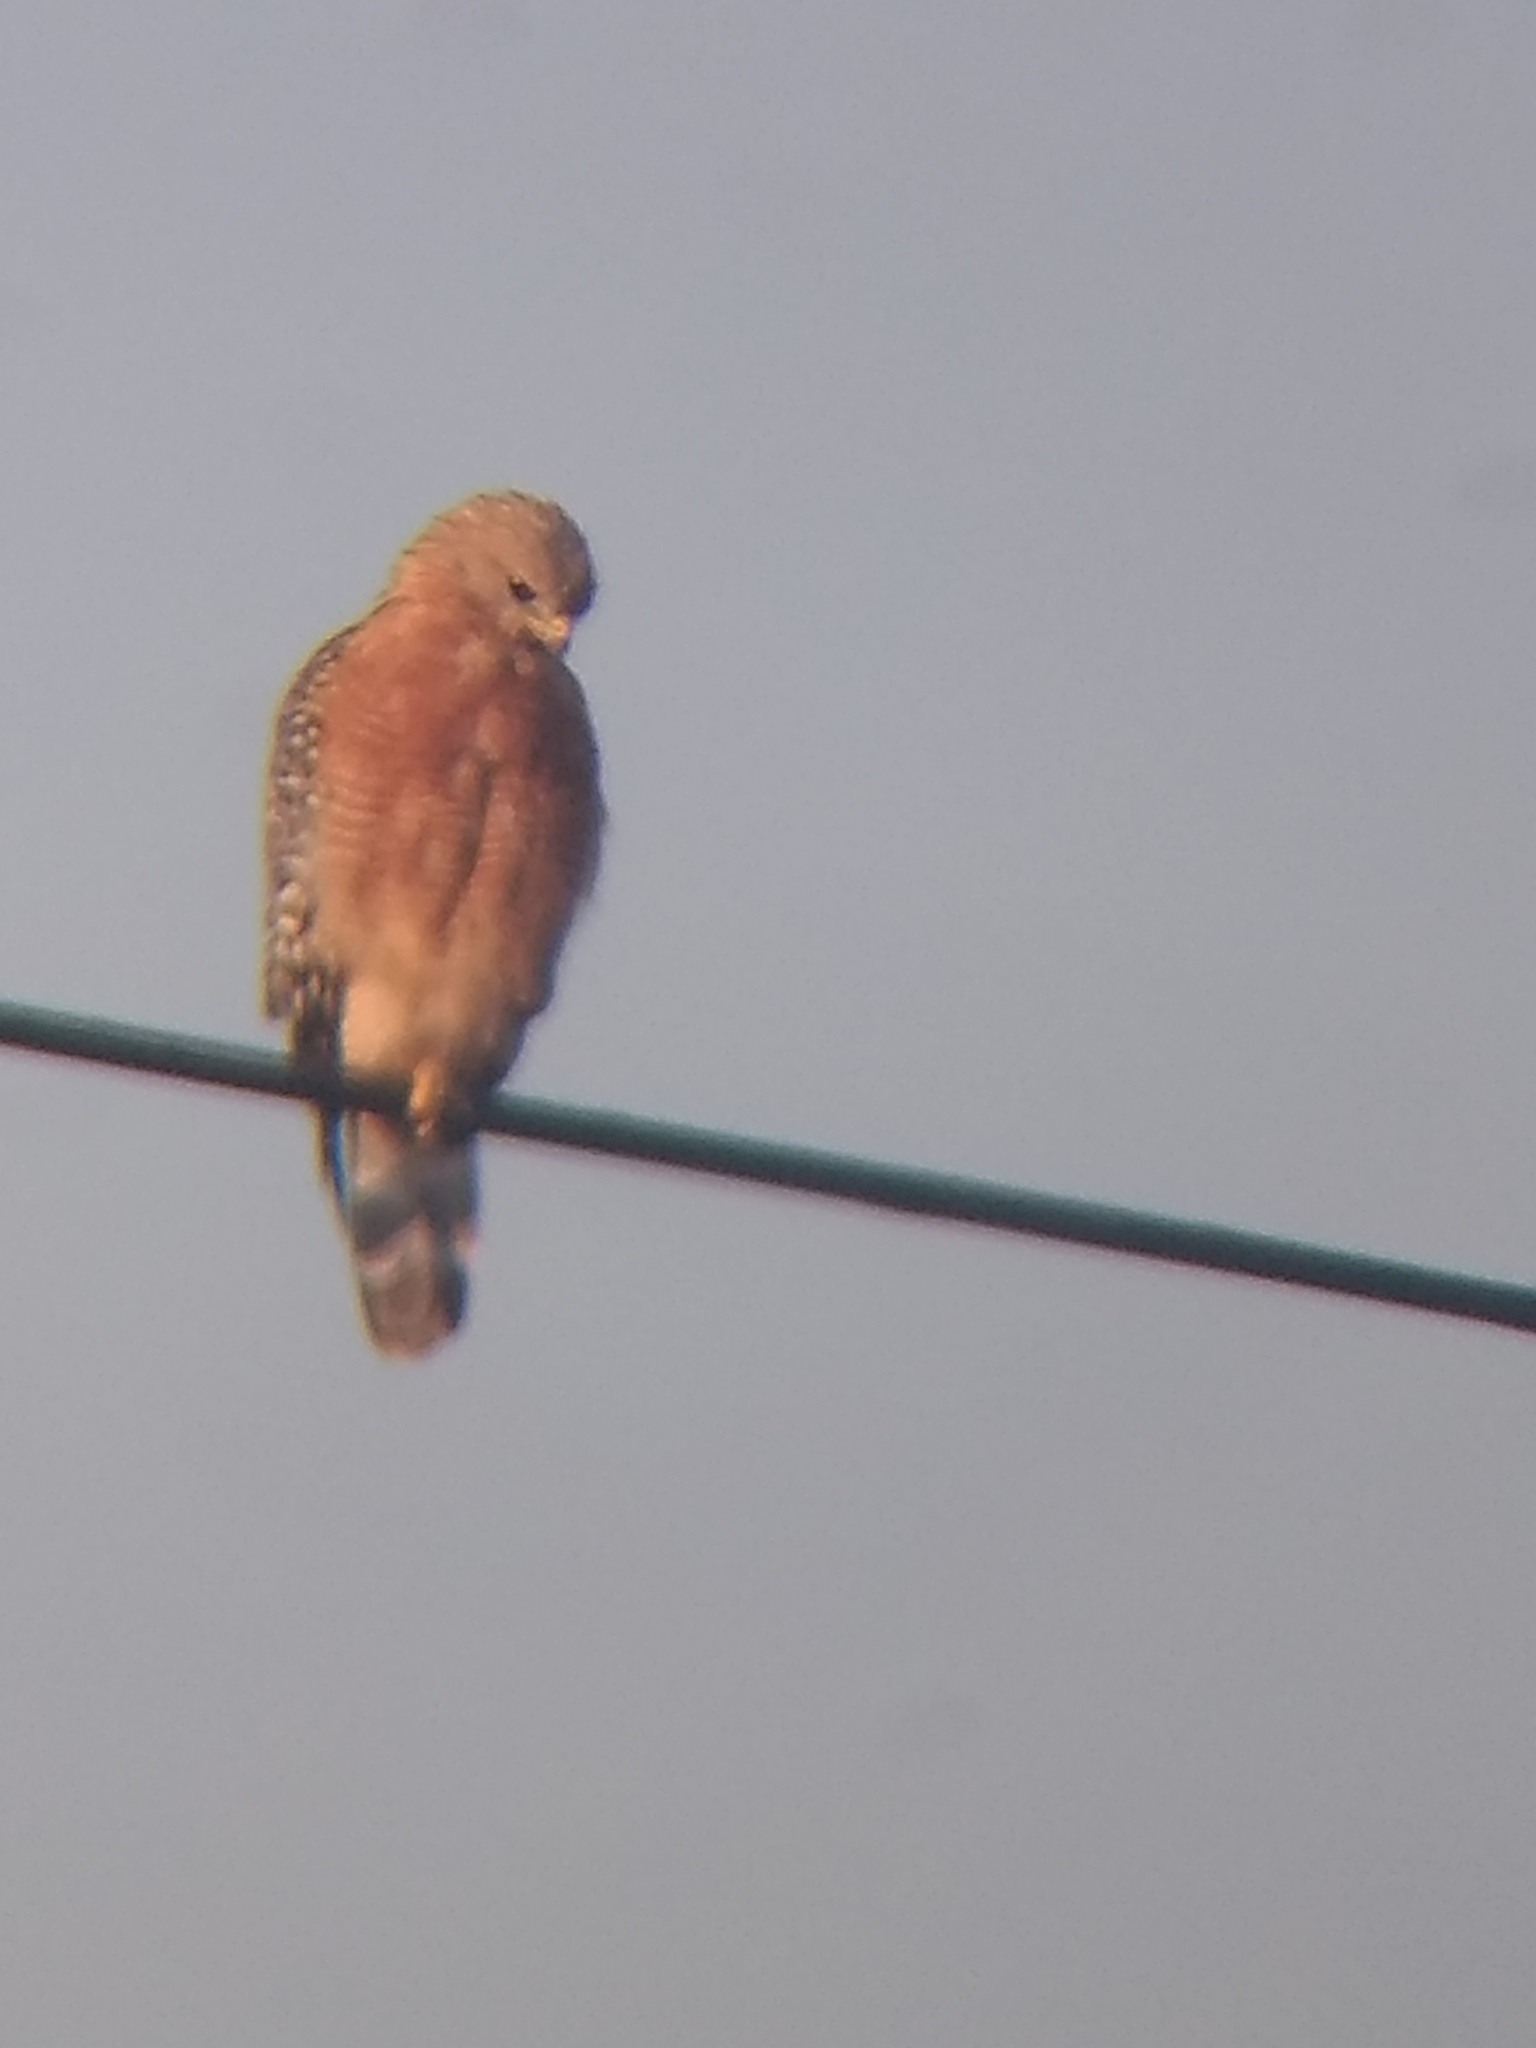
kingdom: Animalia
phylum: Chordata
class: Aves
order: Accipitriformes
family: Accipitridae
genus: Buteo
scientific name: Buteo lineatus
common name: Red-shouldered hawk
